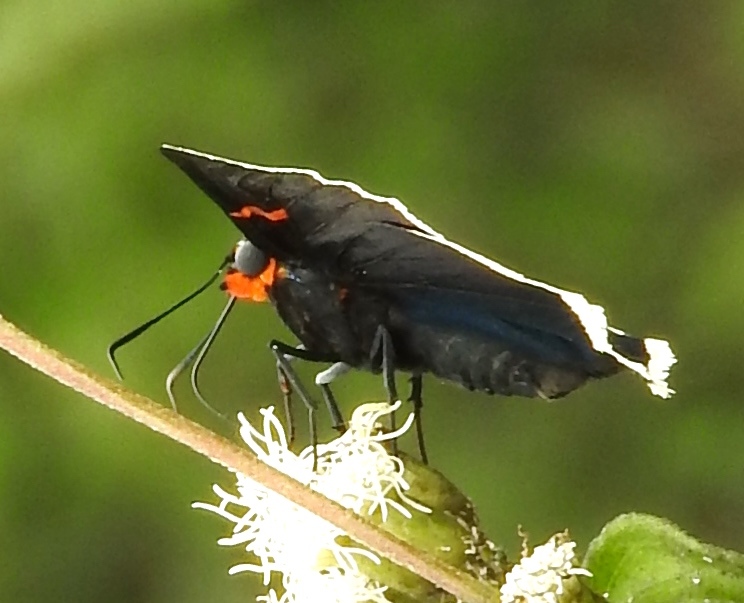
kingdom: Animalia
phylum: Arthropoda
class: Insecta
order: Lepidoptera
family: Hesperiidae
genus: Phocides
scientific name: Phocides lilea
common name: Guava skipper
